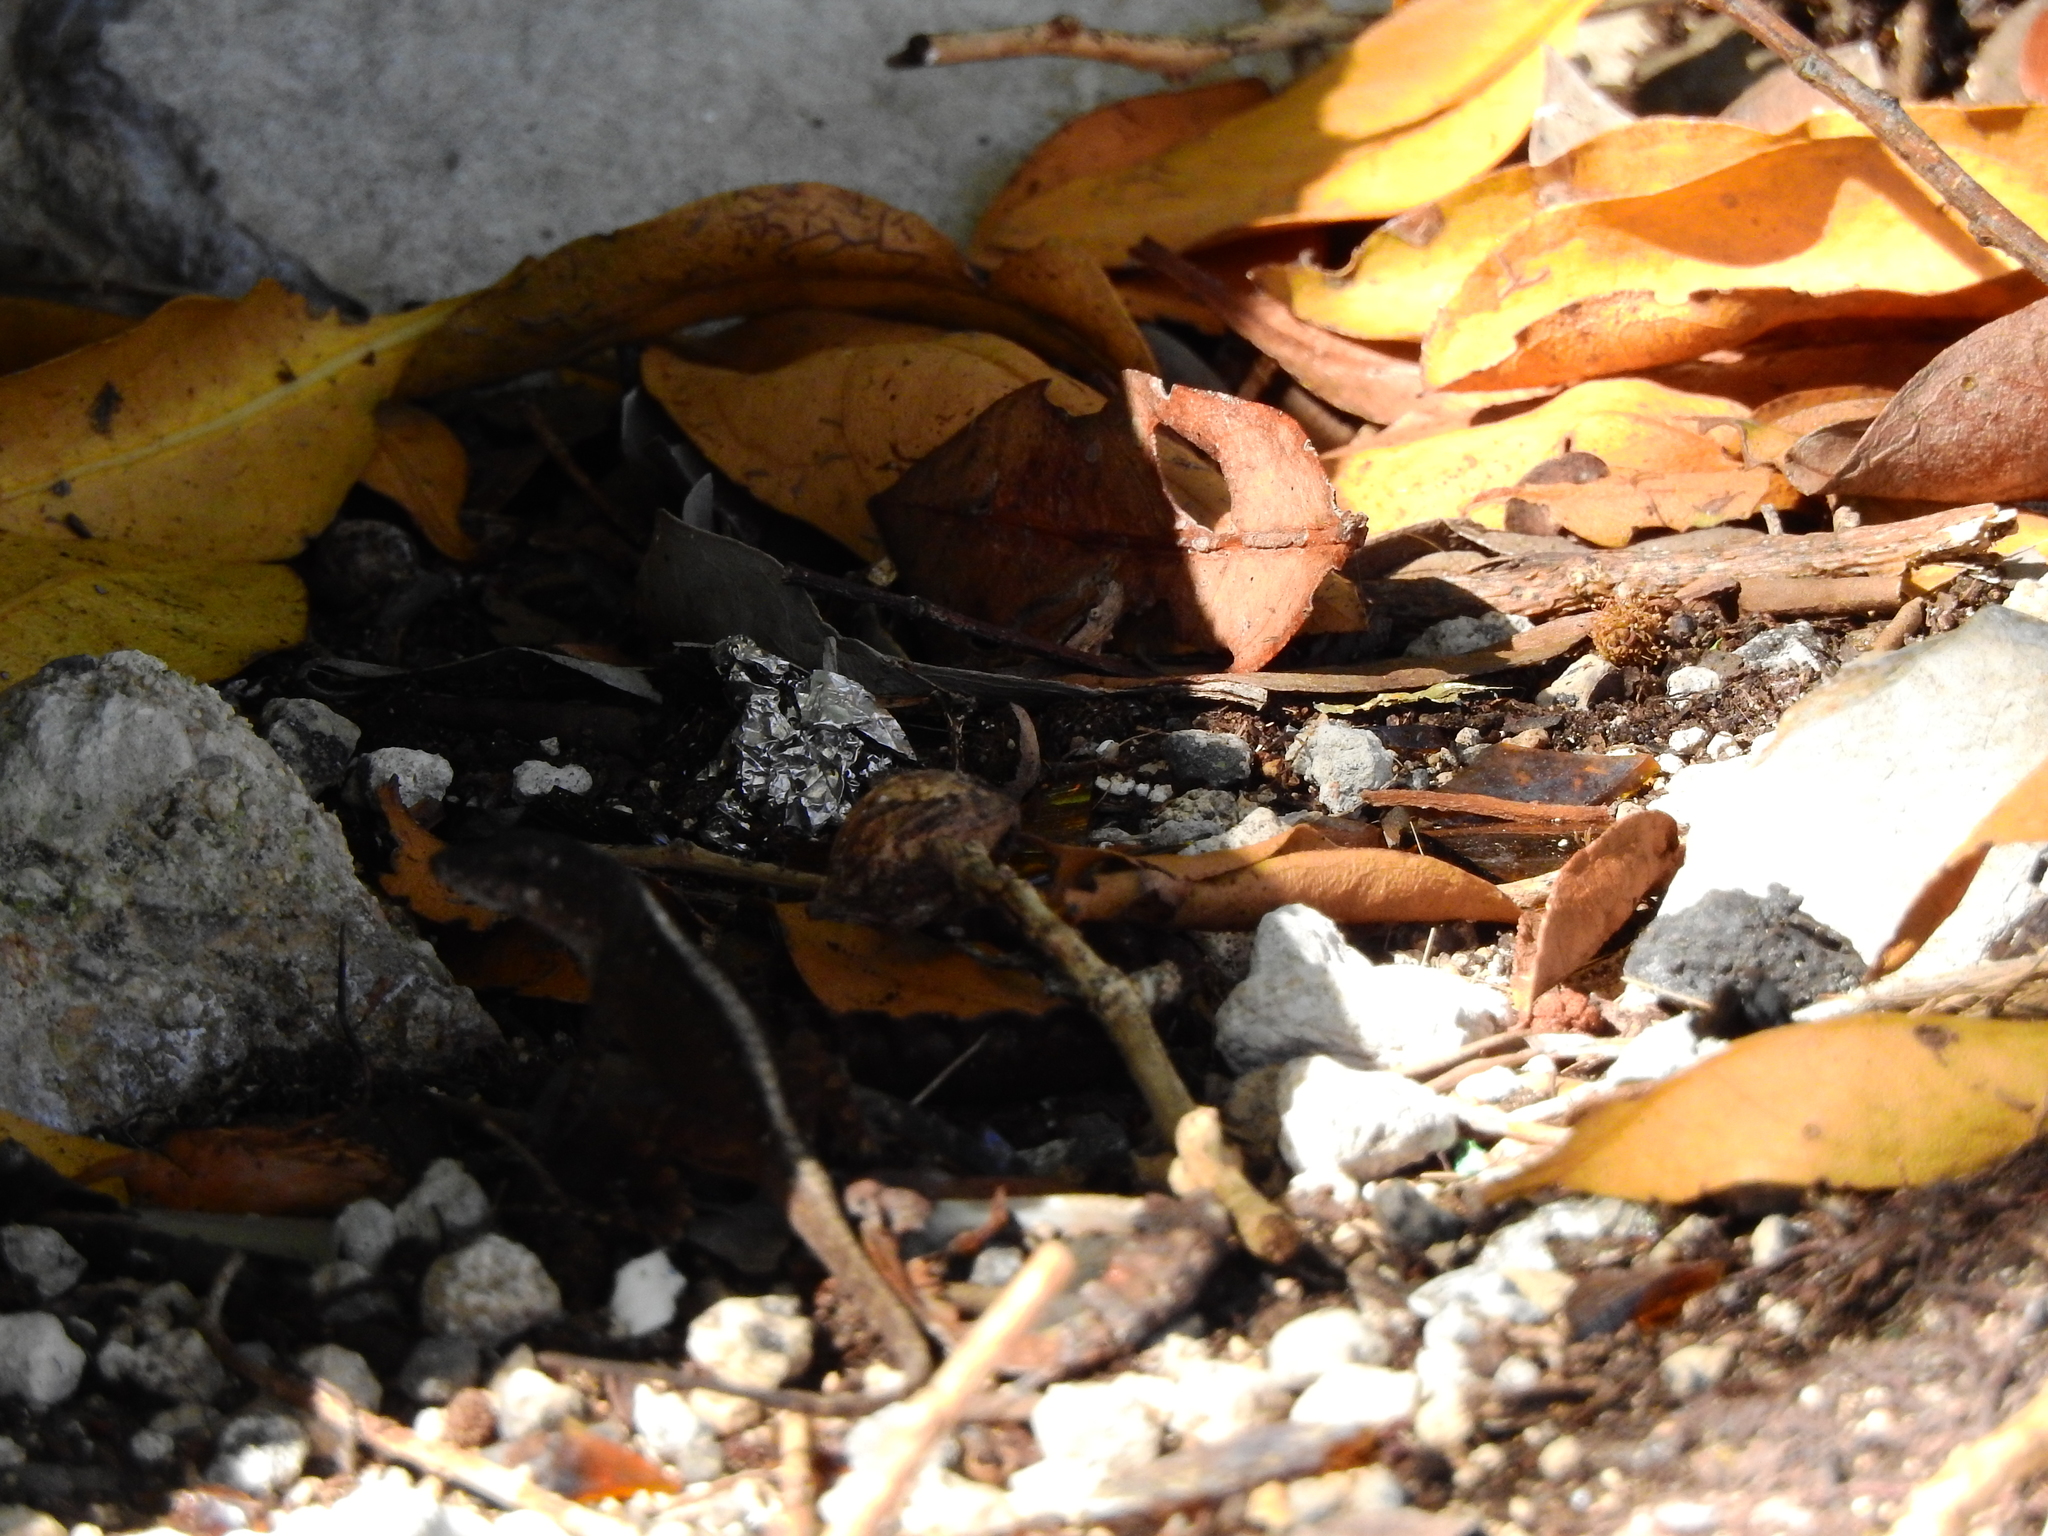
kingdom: Animalia
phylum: Chordata
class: Squamata
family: Dactyloidae
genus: Anolis
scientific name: Anolis sagrei
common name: Brown anole
